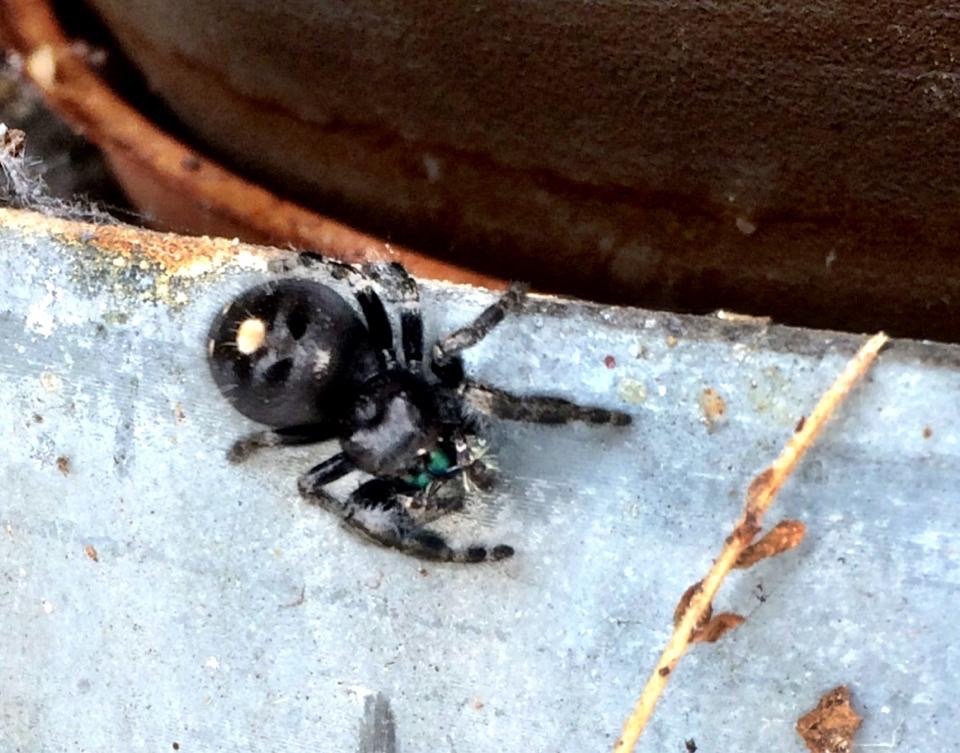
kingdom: Animalia
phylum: Arthropoda
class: Arachnida
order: Araneae
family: Salticidae
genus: Phidippus
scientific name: Phidippus audax
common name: Bold jumper
